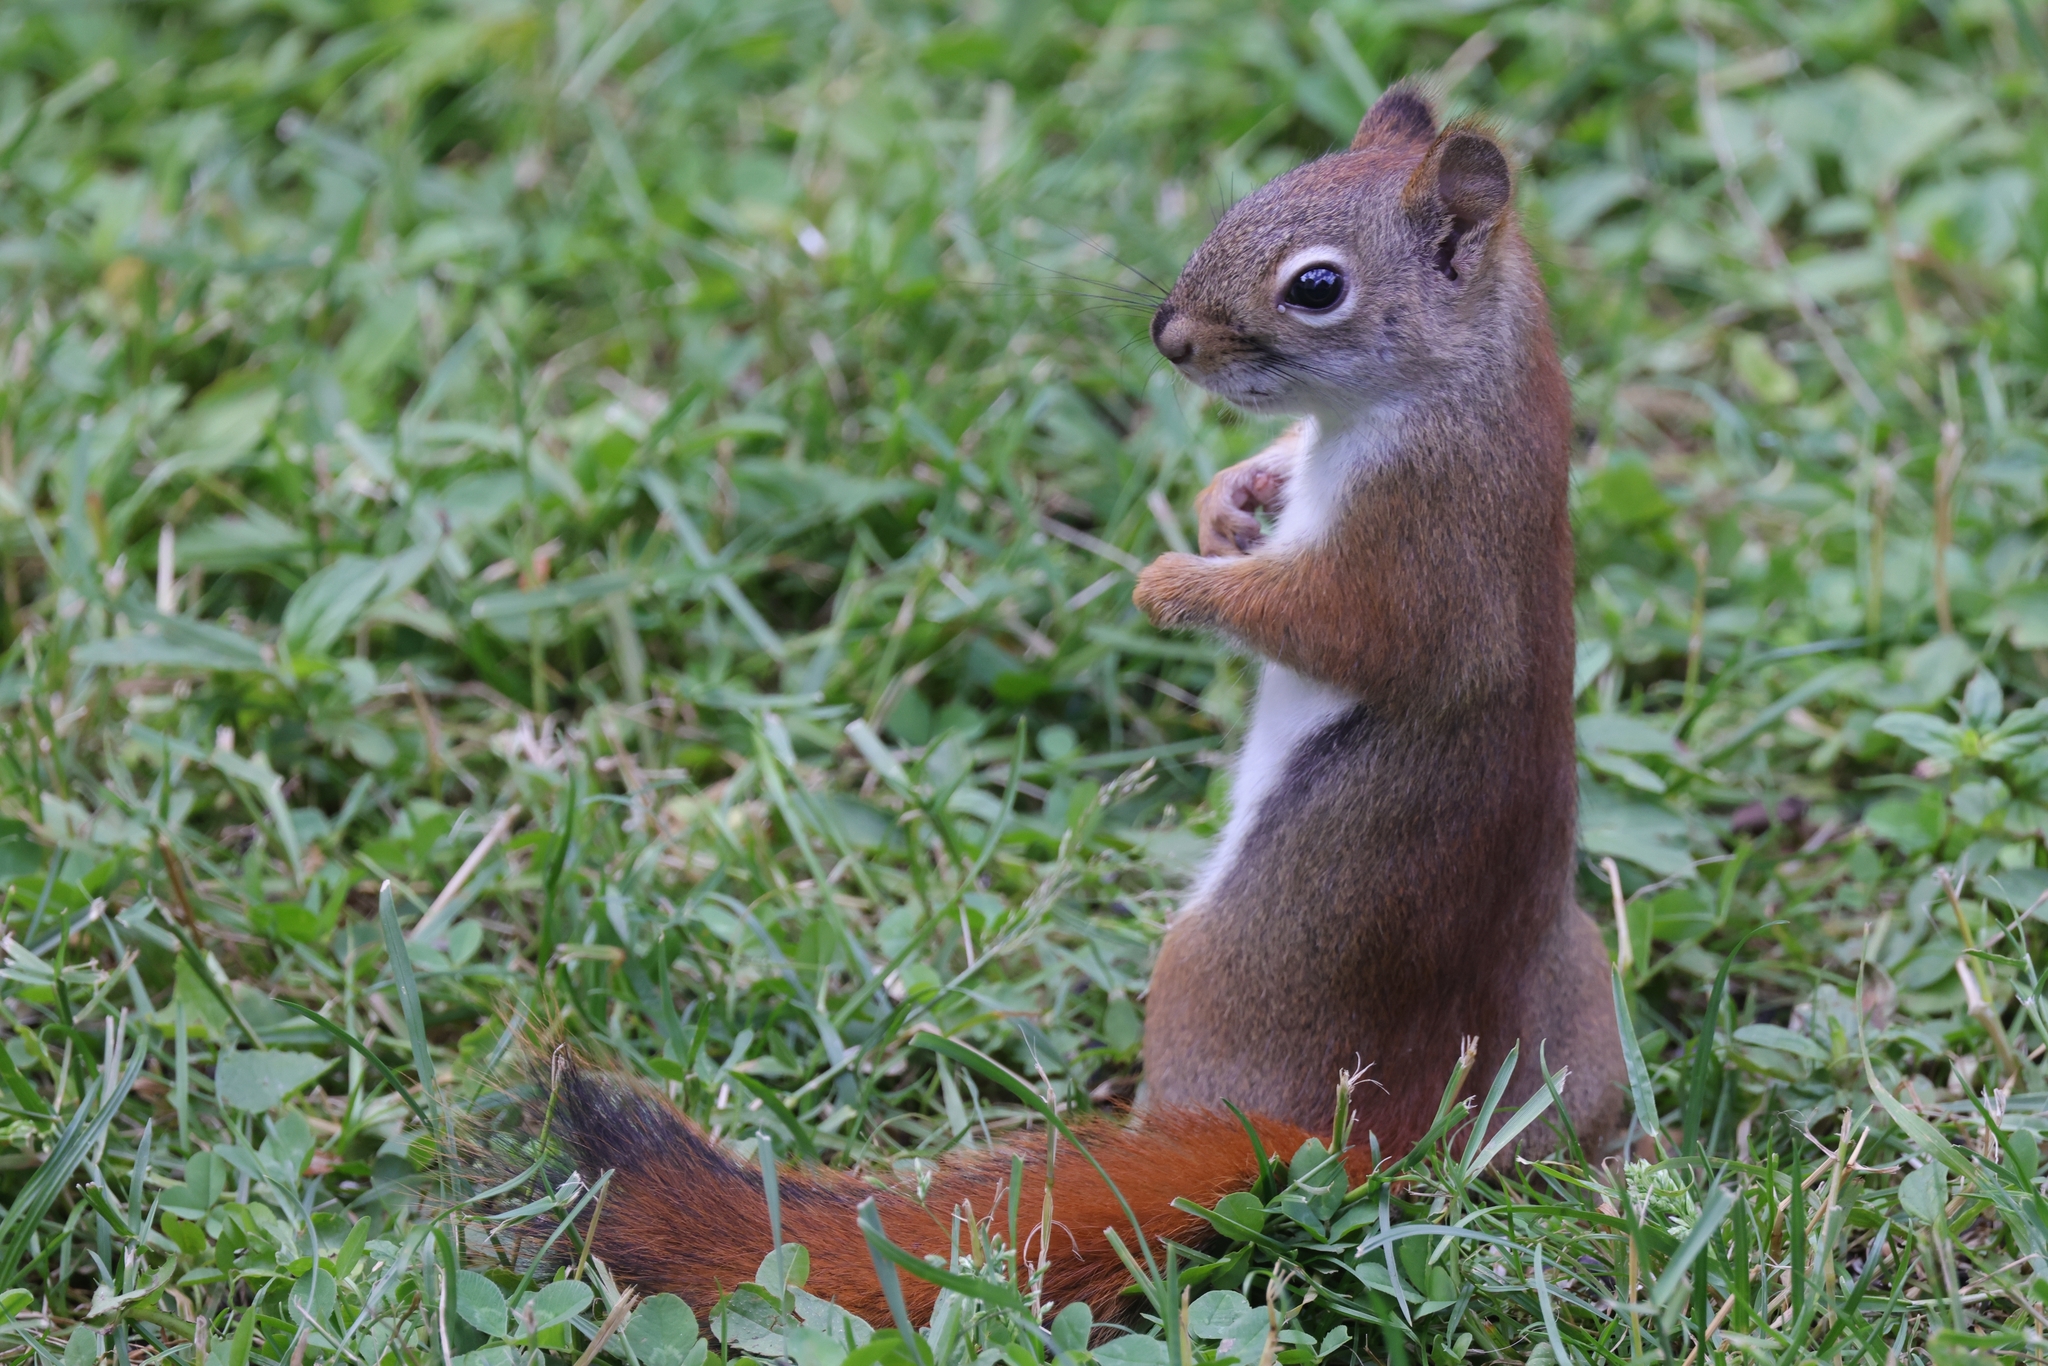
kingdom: Animalia
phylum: Chordata
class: Mammalia
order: Rodentia
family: Sciuridae
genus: Tamiasciurus
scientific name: Tamiasciurus hudsonicus
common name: Red squirrel
